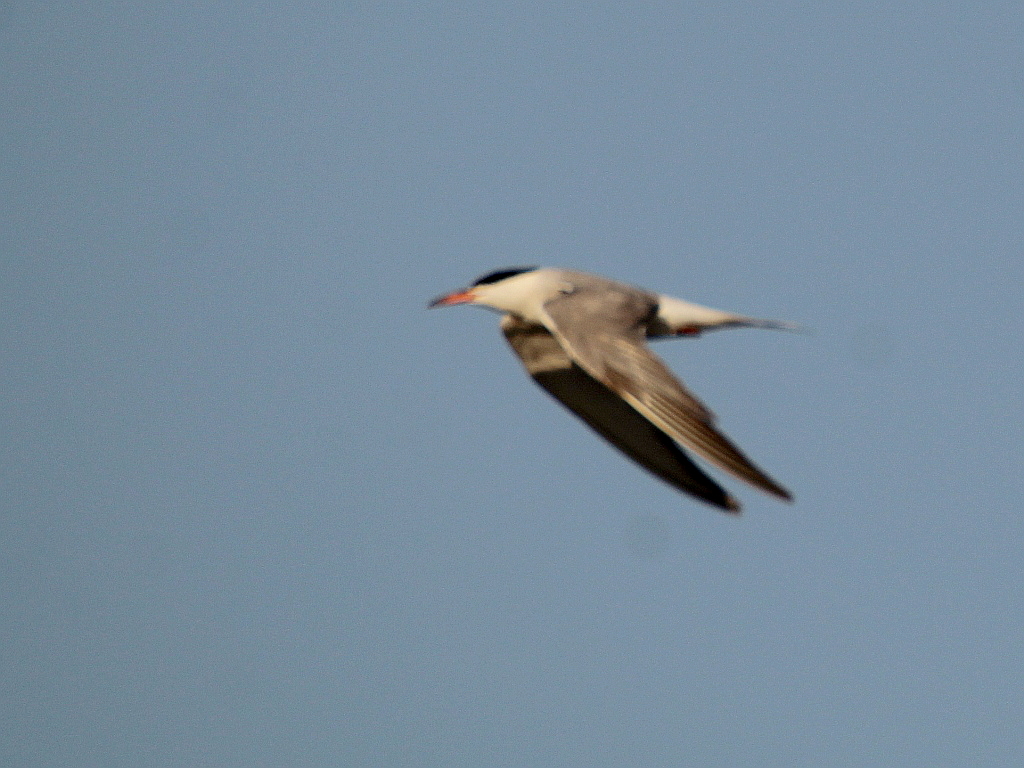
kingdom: Animalia
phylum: Chordata
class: Aves
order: Charadriiformes
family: Laridae
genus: Sterna
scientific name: Sterna hirundo
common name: Common tern
